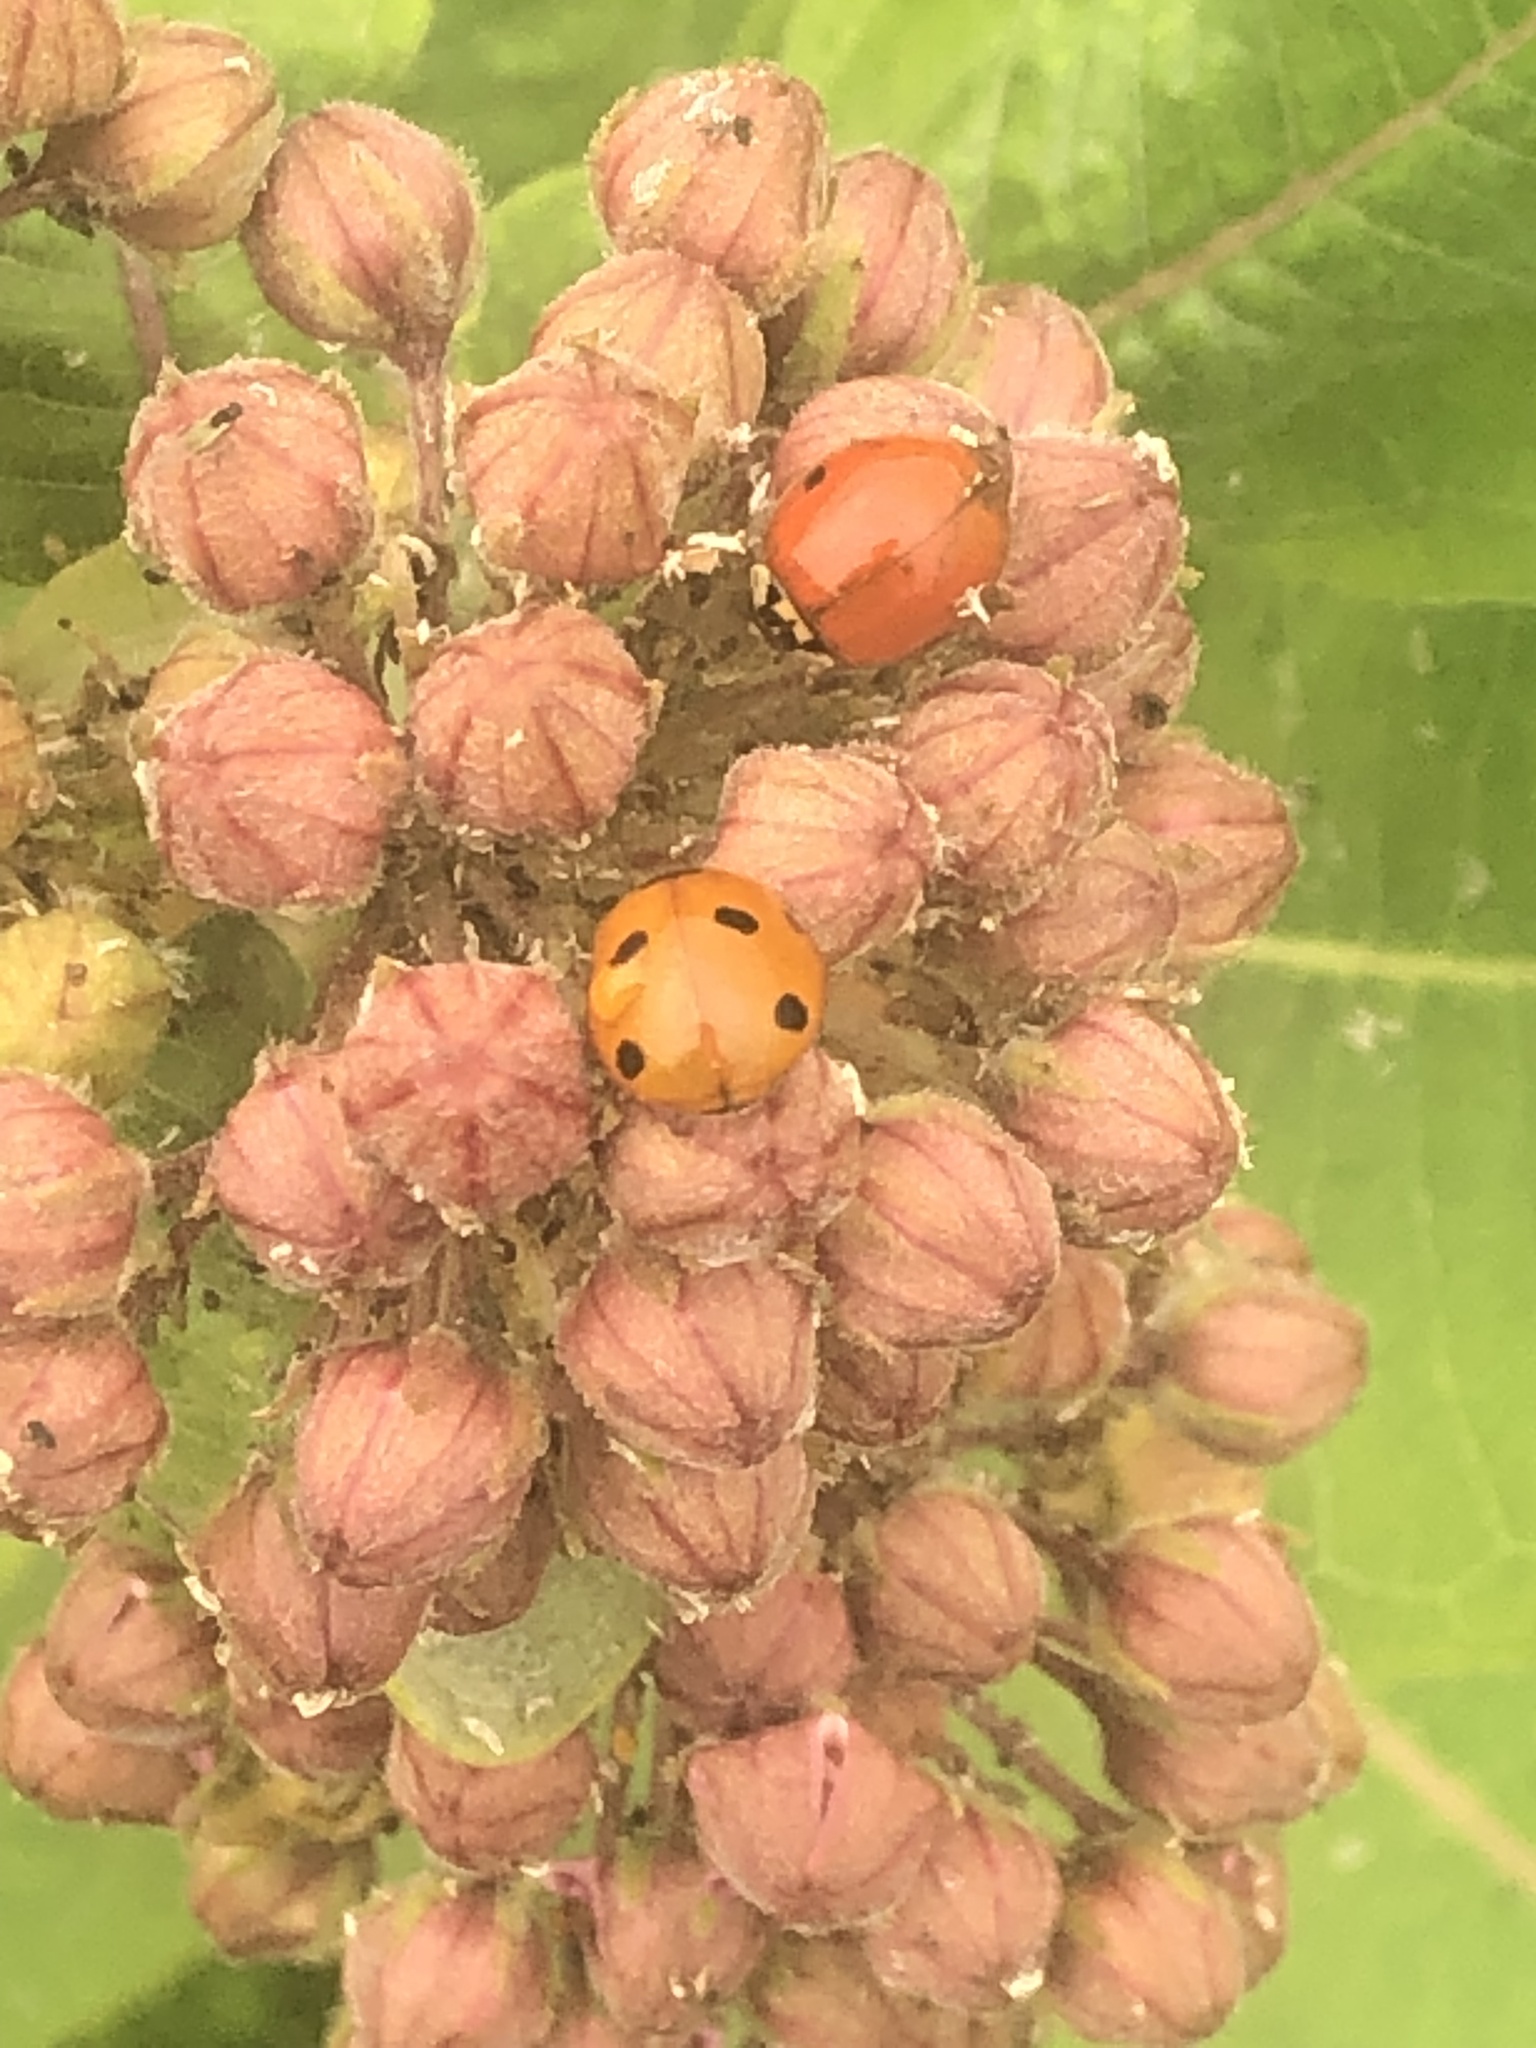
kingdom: Animalia
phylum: Arthropoda
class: Insecta
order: Coleoptera
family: Coccinellidae
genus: Harmonia
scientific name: Harmonia axyridis
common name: Harlequin ladybird
